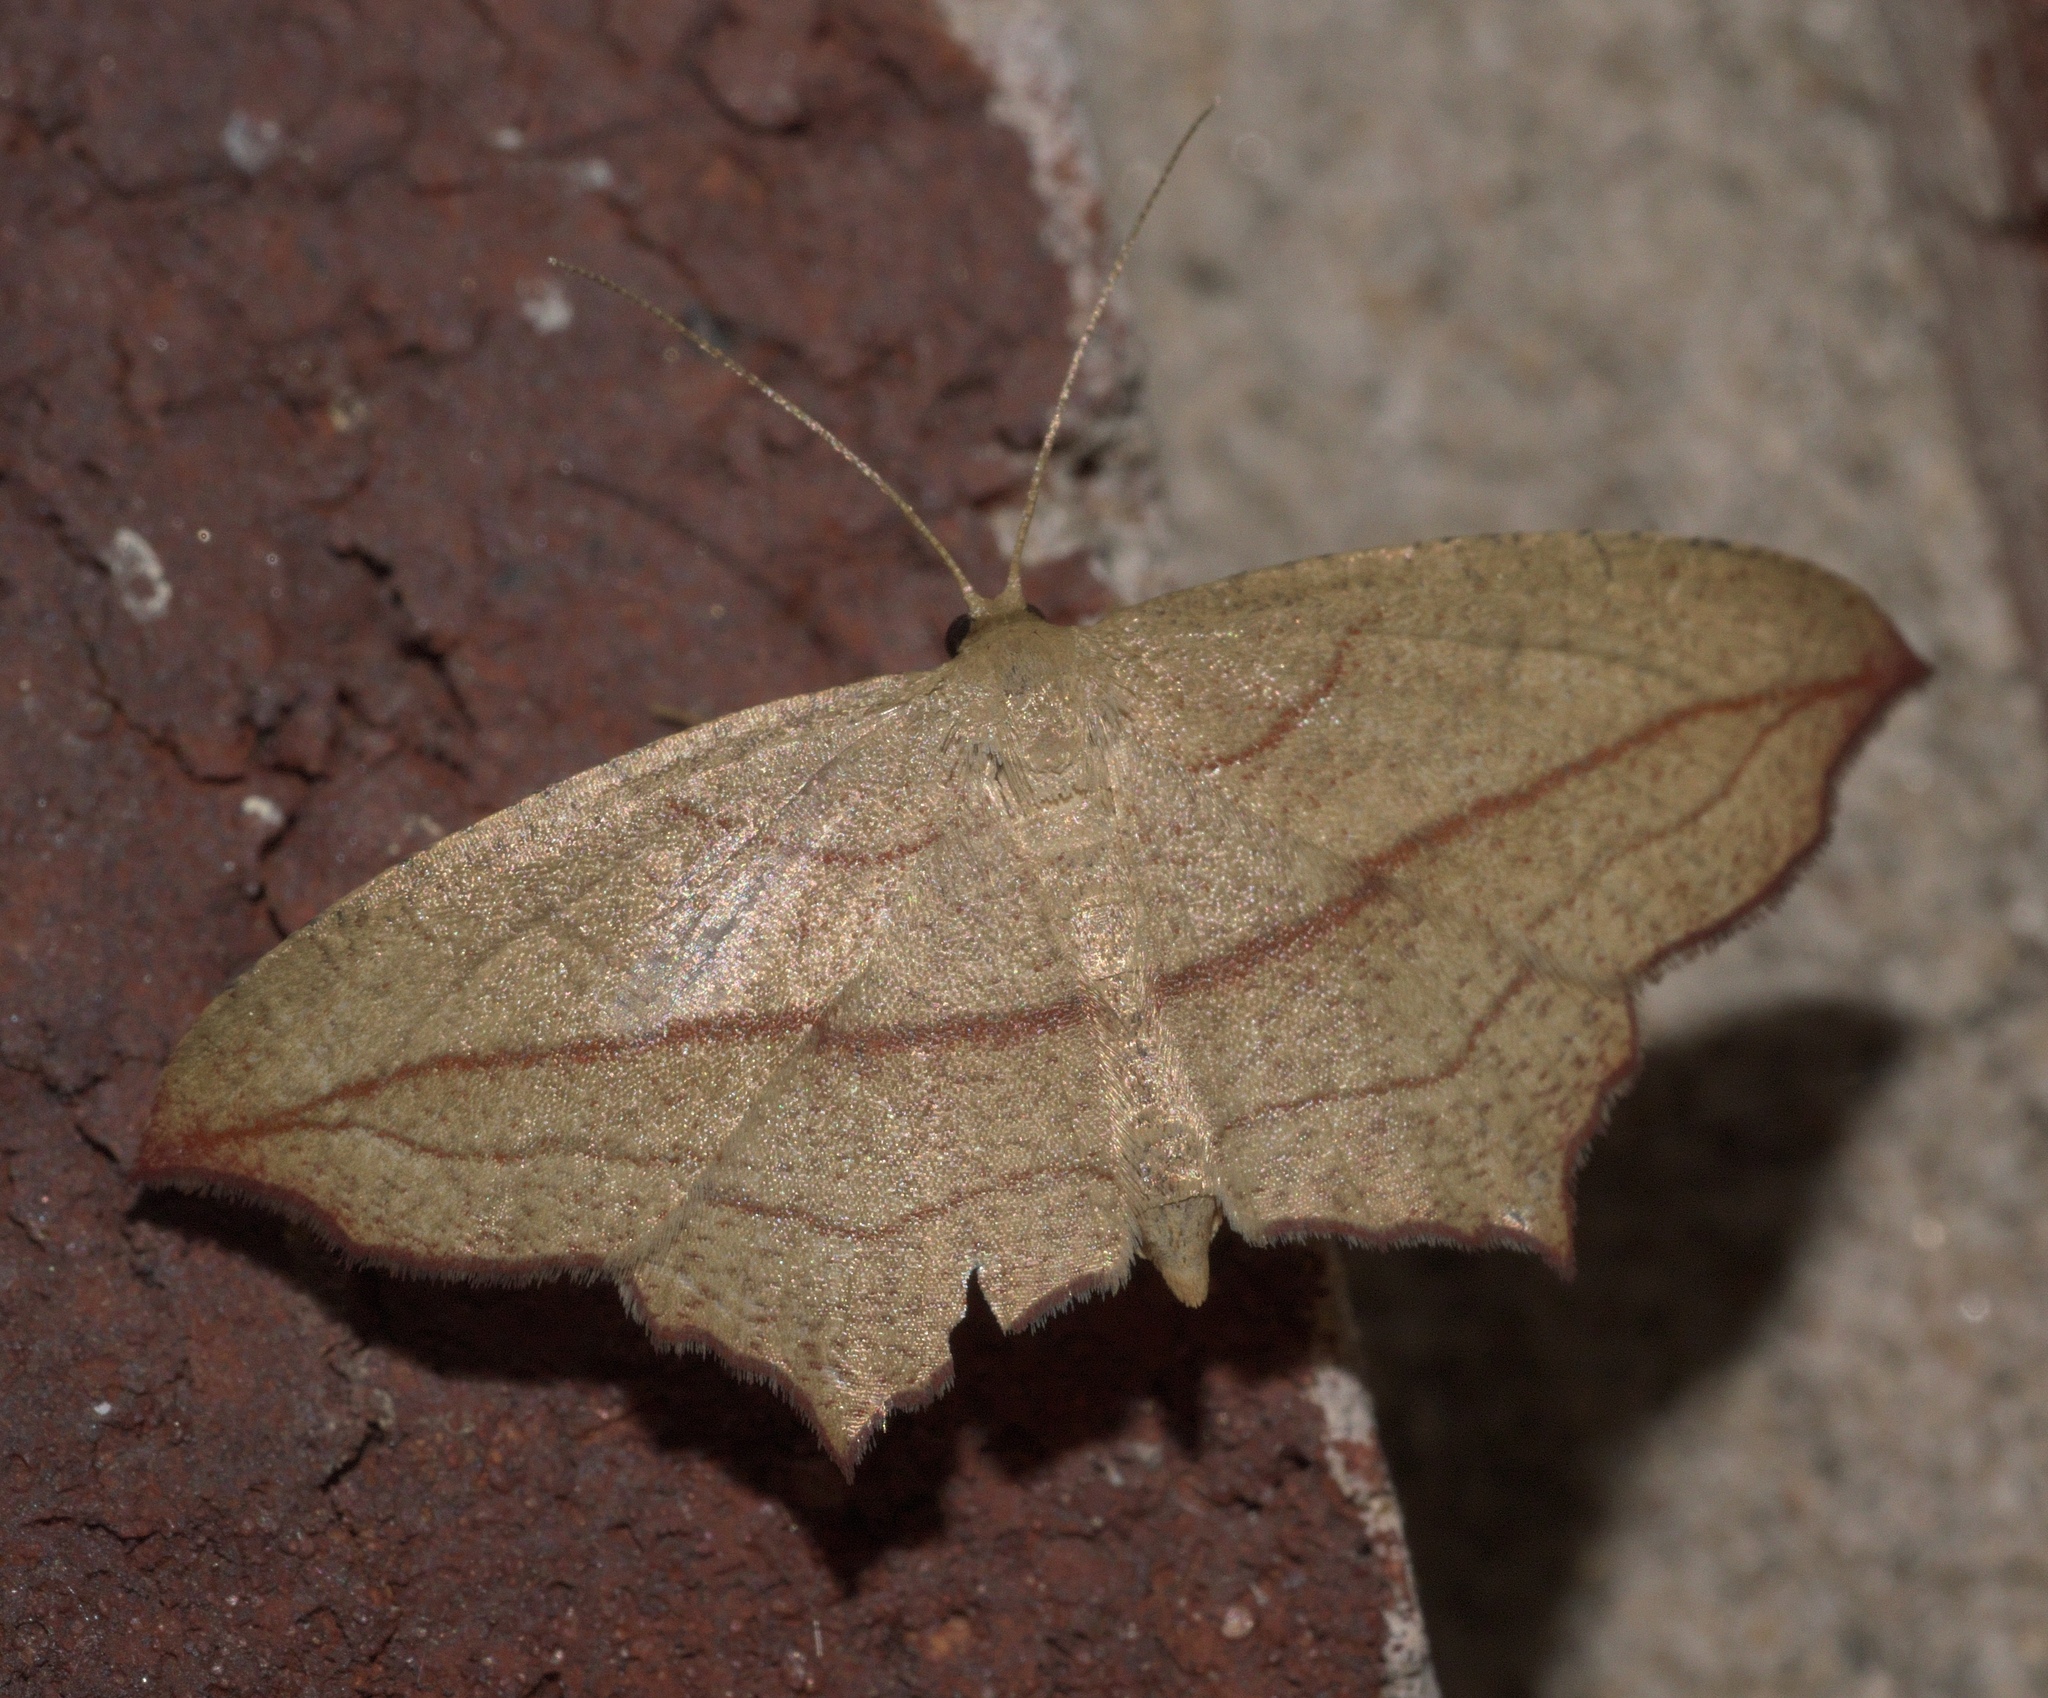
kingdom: Animalia
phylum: Arthropoda
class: Insecta
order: Lepidoptera
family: Geometridae
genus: Timandra
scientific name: Timandra amaturaria
